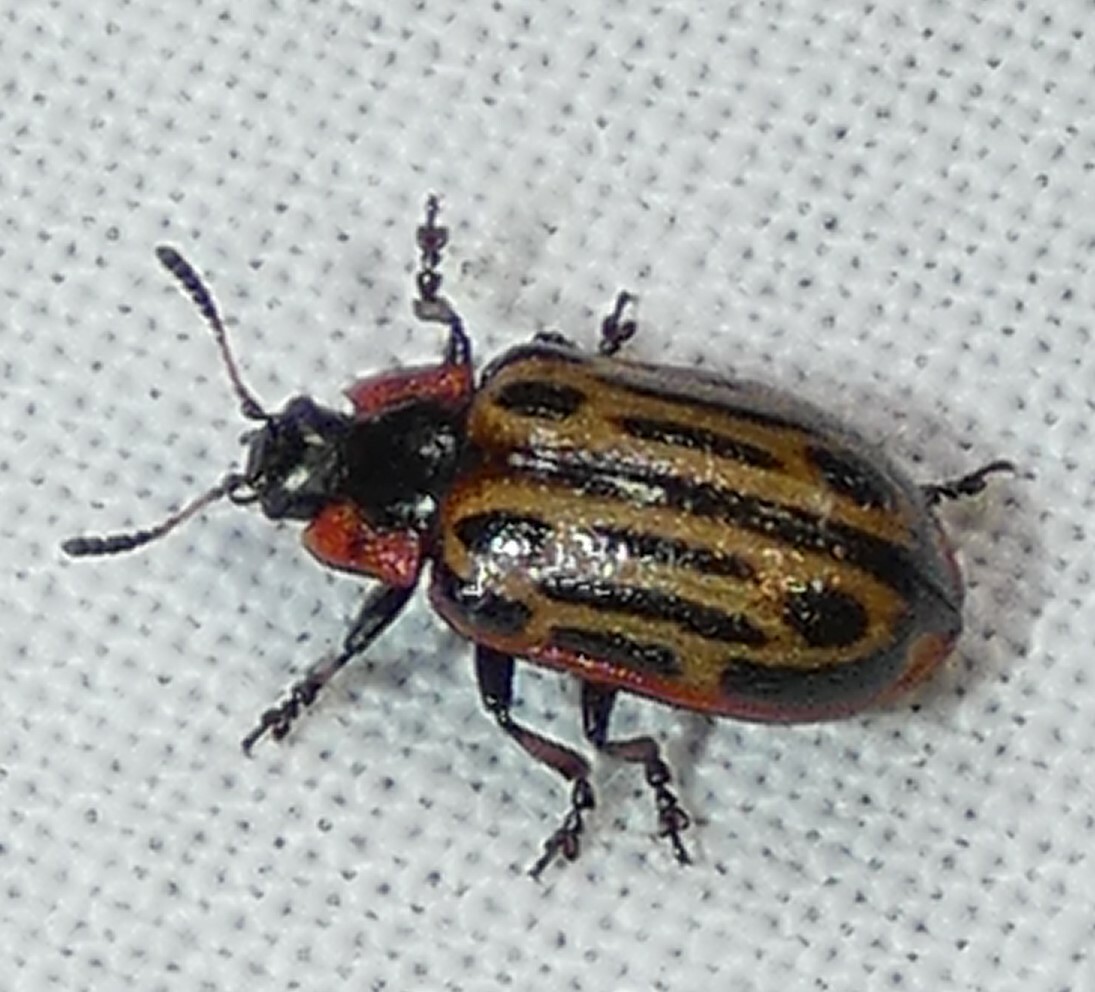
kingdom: Animalia
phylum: Arthropoda
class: Insecta
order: Coleoptera
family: Chrysomelidae
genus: Aethiopocassis
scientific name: Aethiopocassis scripta
